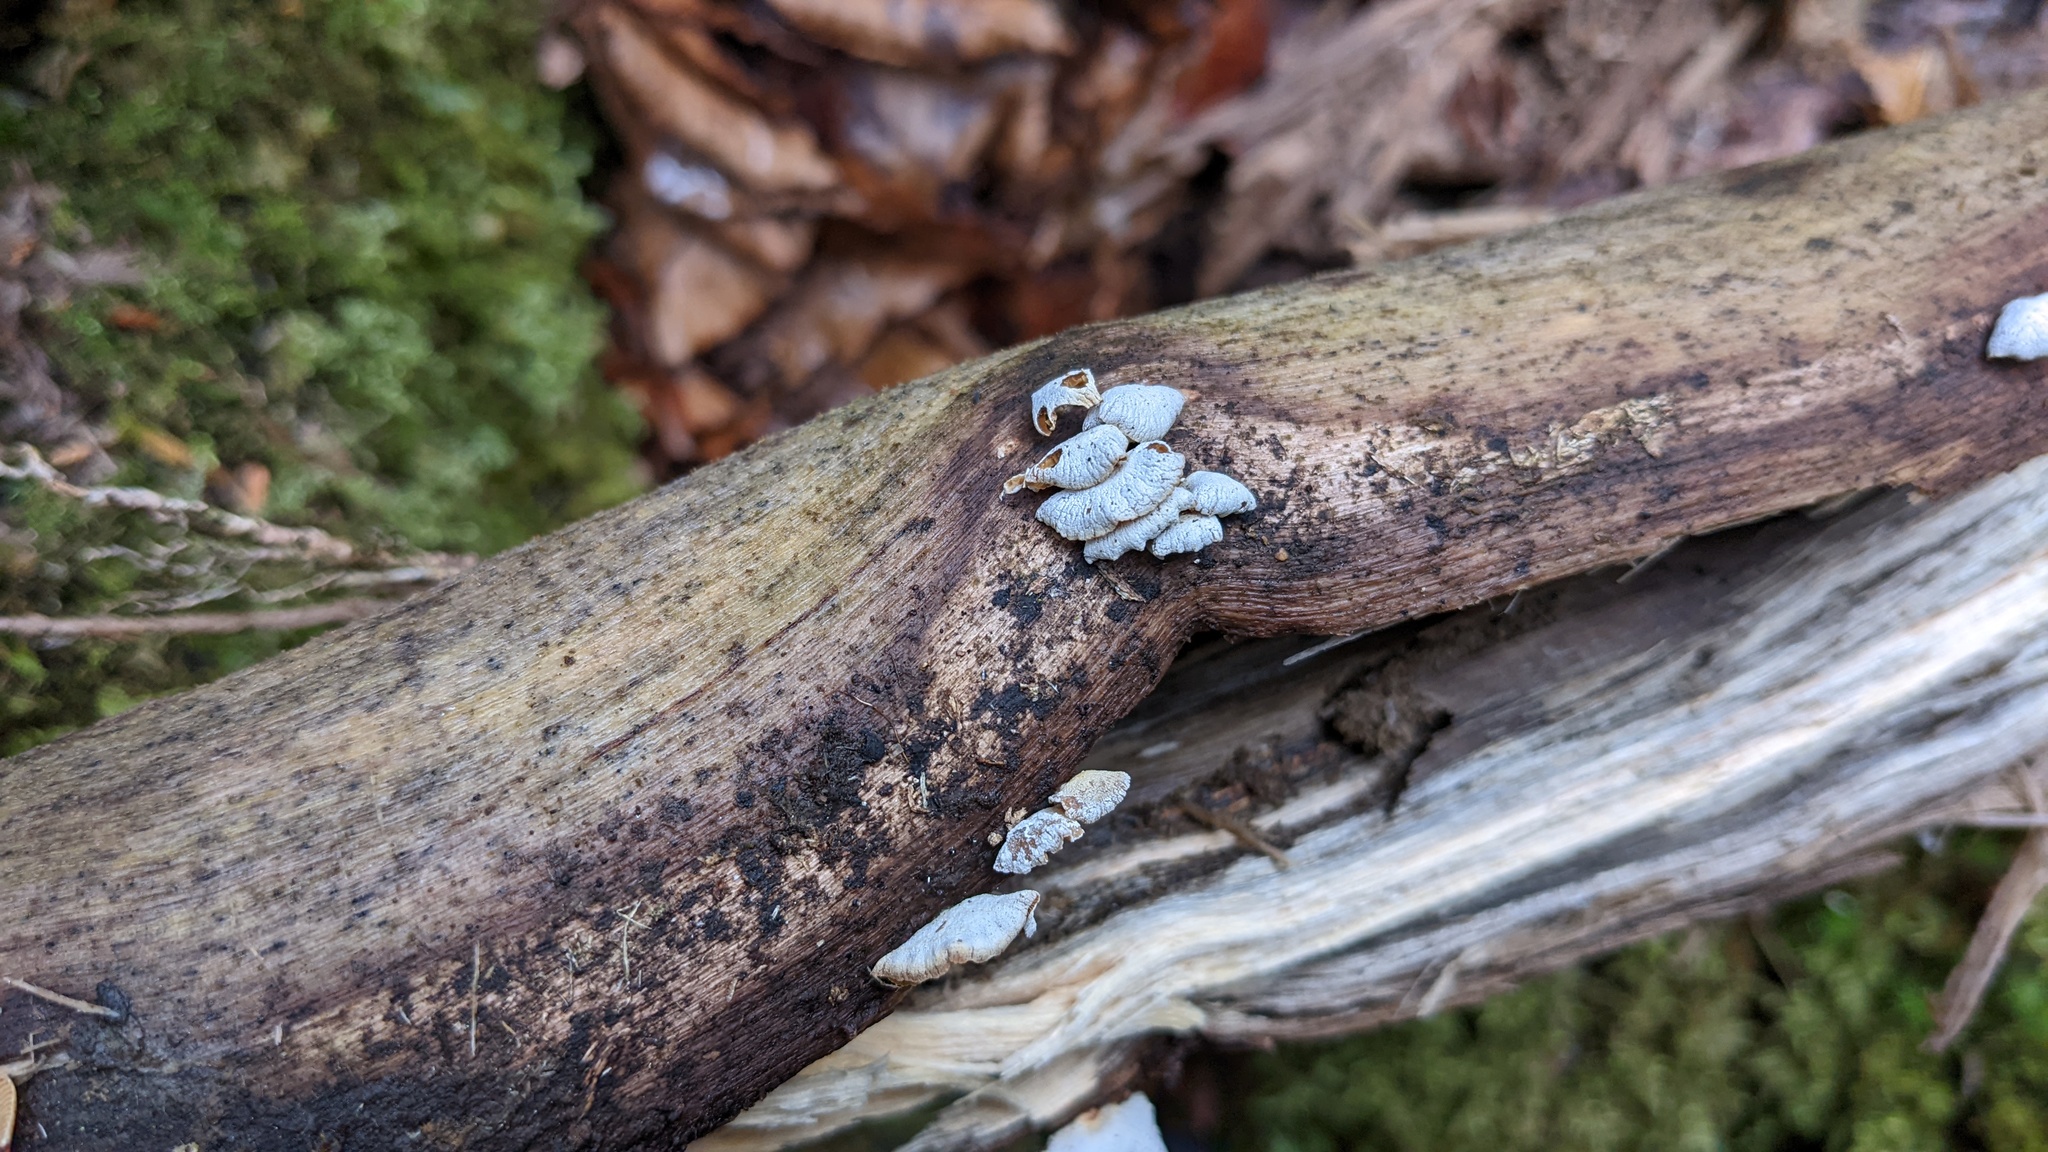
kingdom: Fungi
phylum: Basidiomycota
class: Agaricomycetes
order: Agaricales
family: Mycenaceae
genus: Panellus
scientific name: Panellus stipticus
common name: Bitter oysterling
